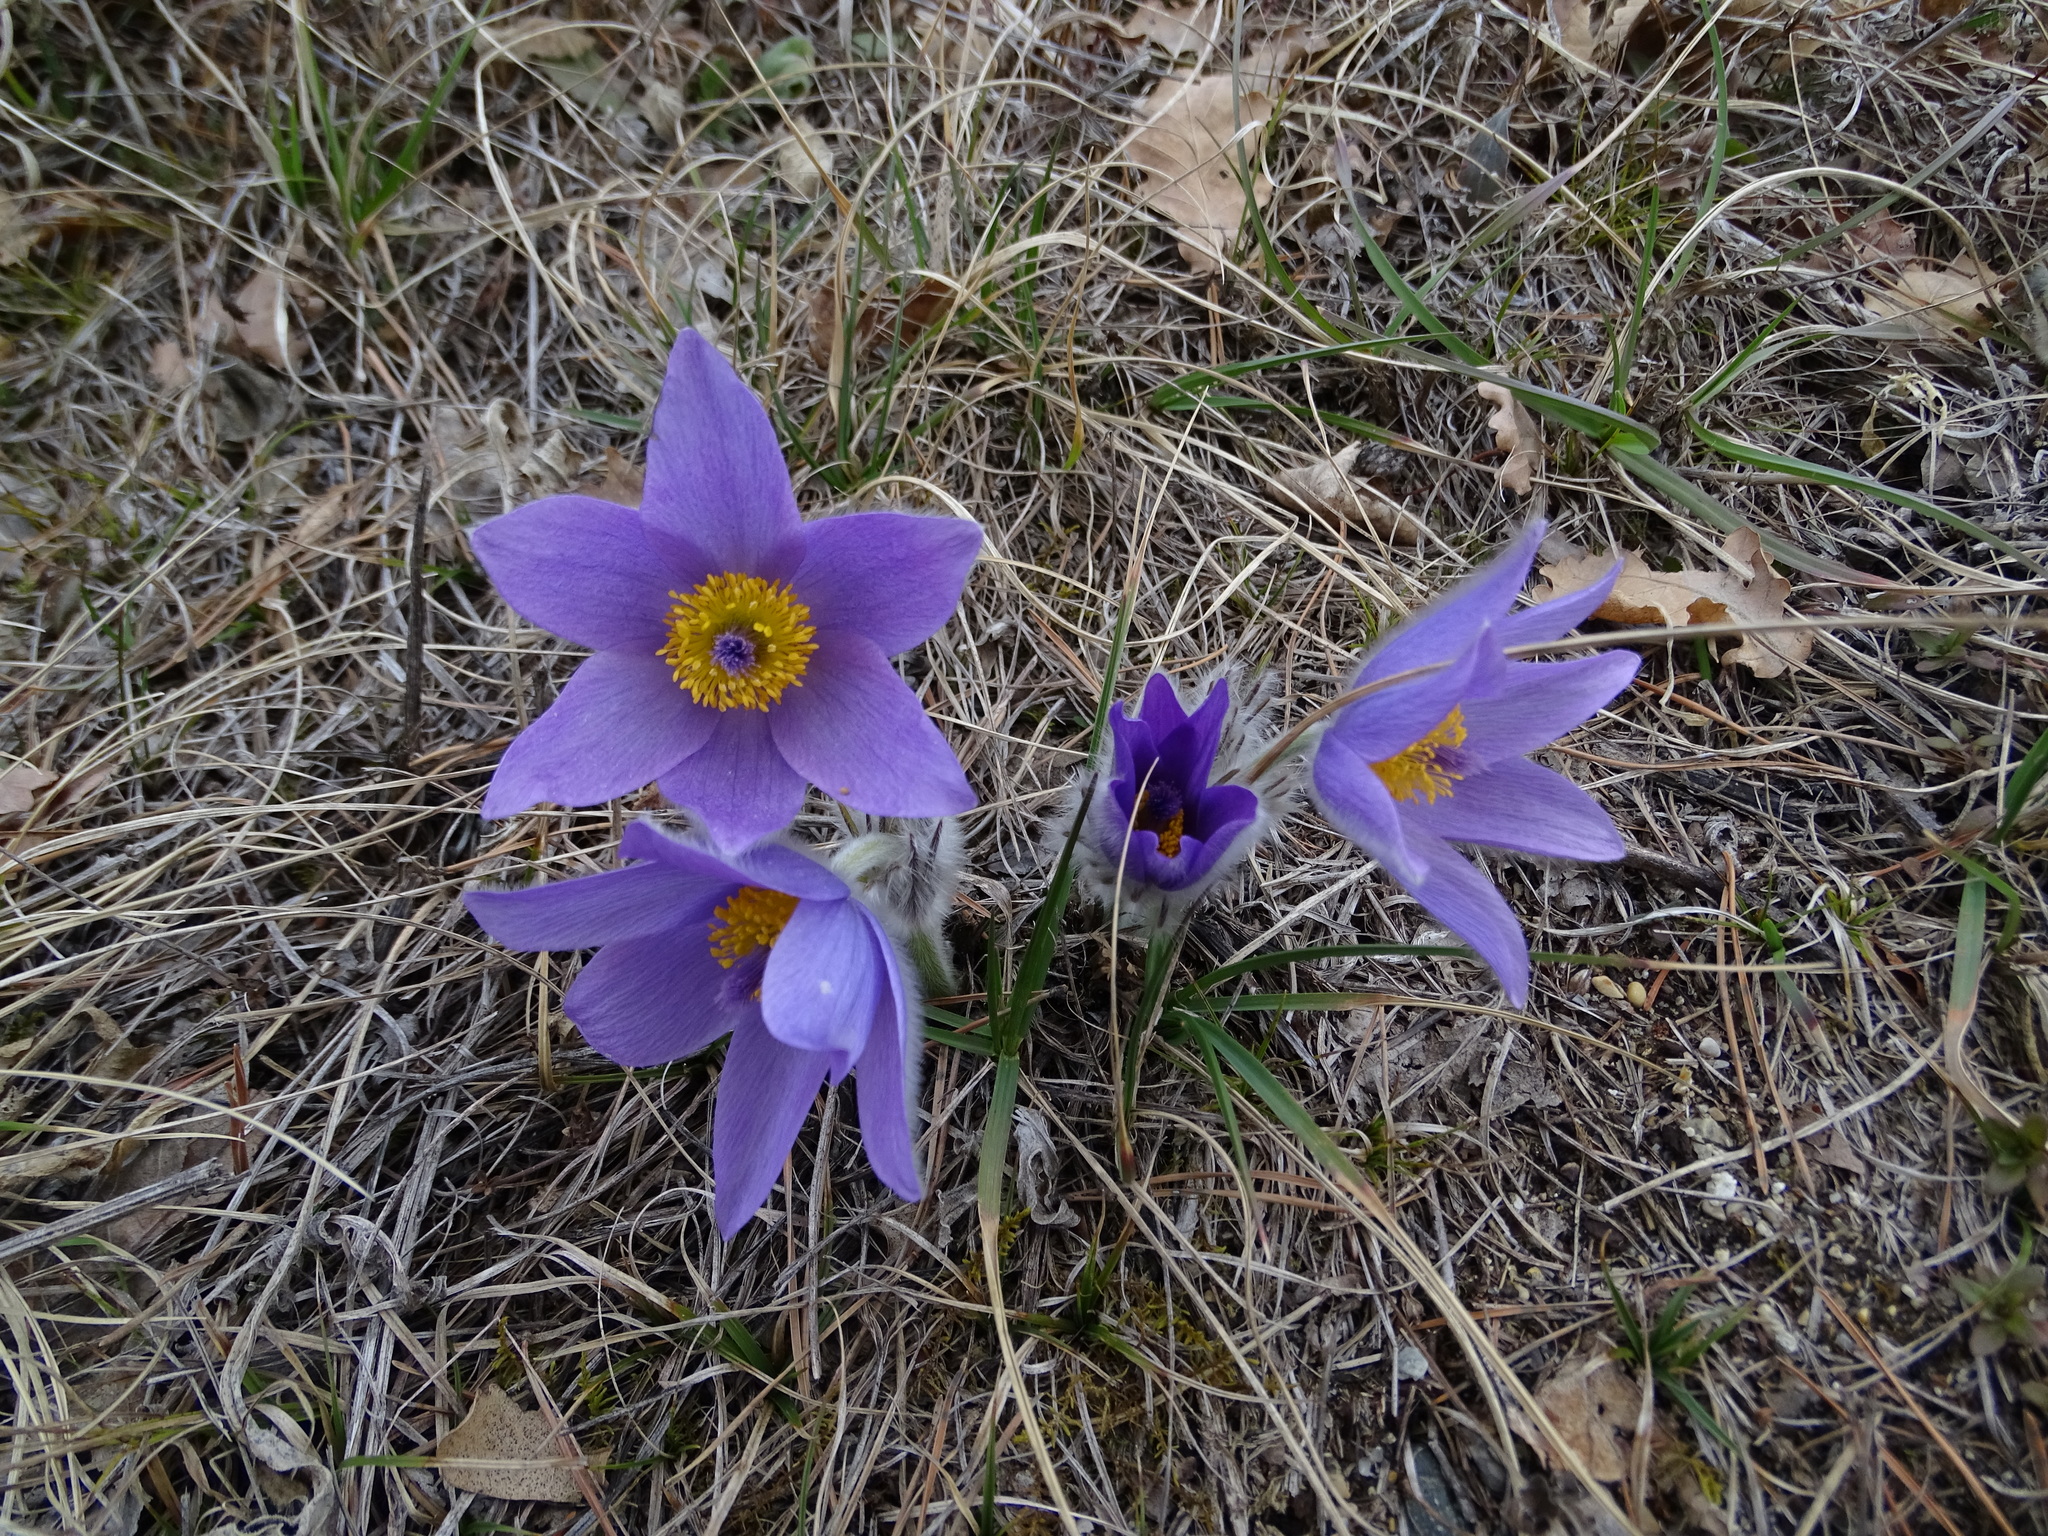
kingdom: Plantae
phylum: Tracheophyta
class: Magnoliopsida
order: Ranunculales
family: Ranunculaceae
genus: Pulsatilla
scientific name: Pulsatilla grandis
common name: Greater pasque flower
